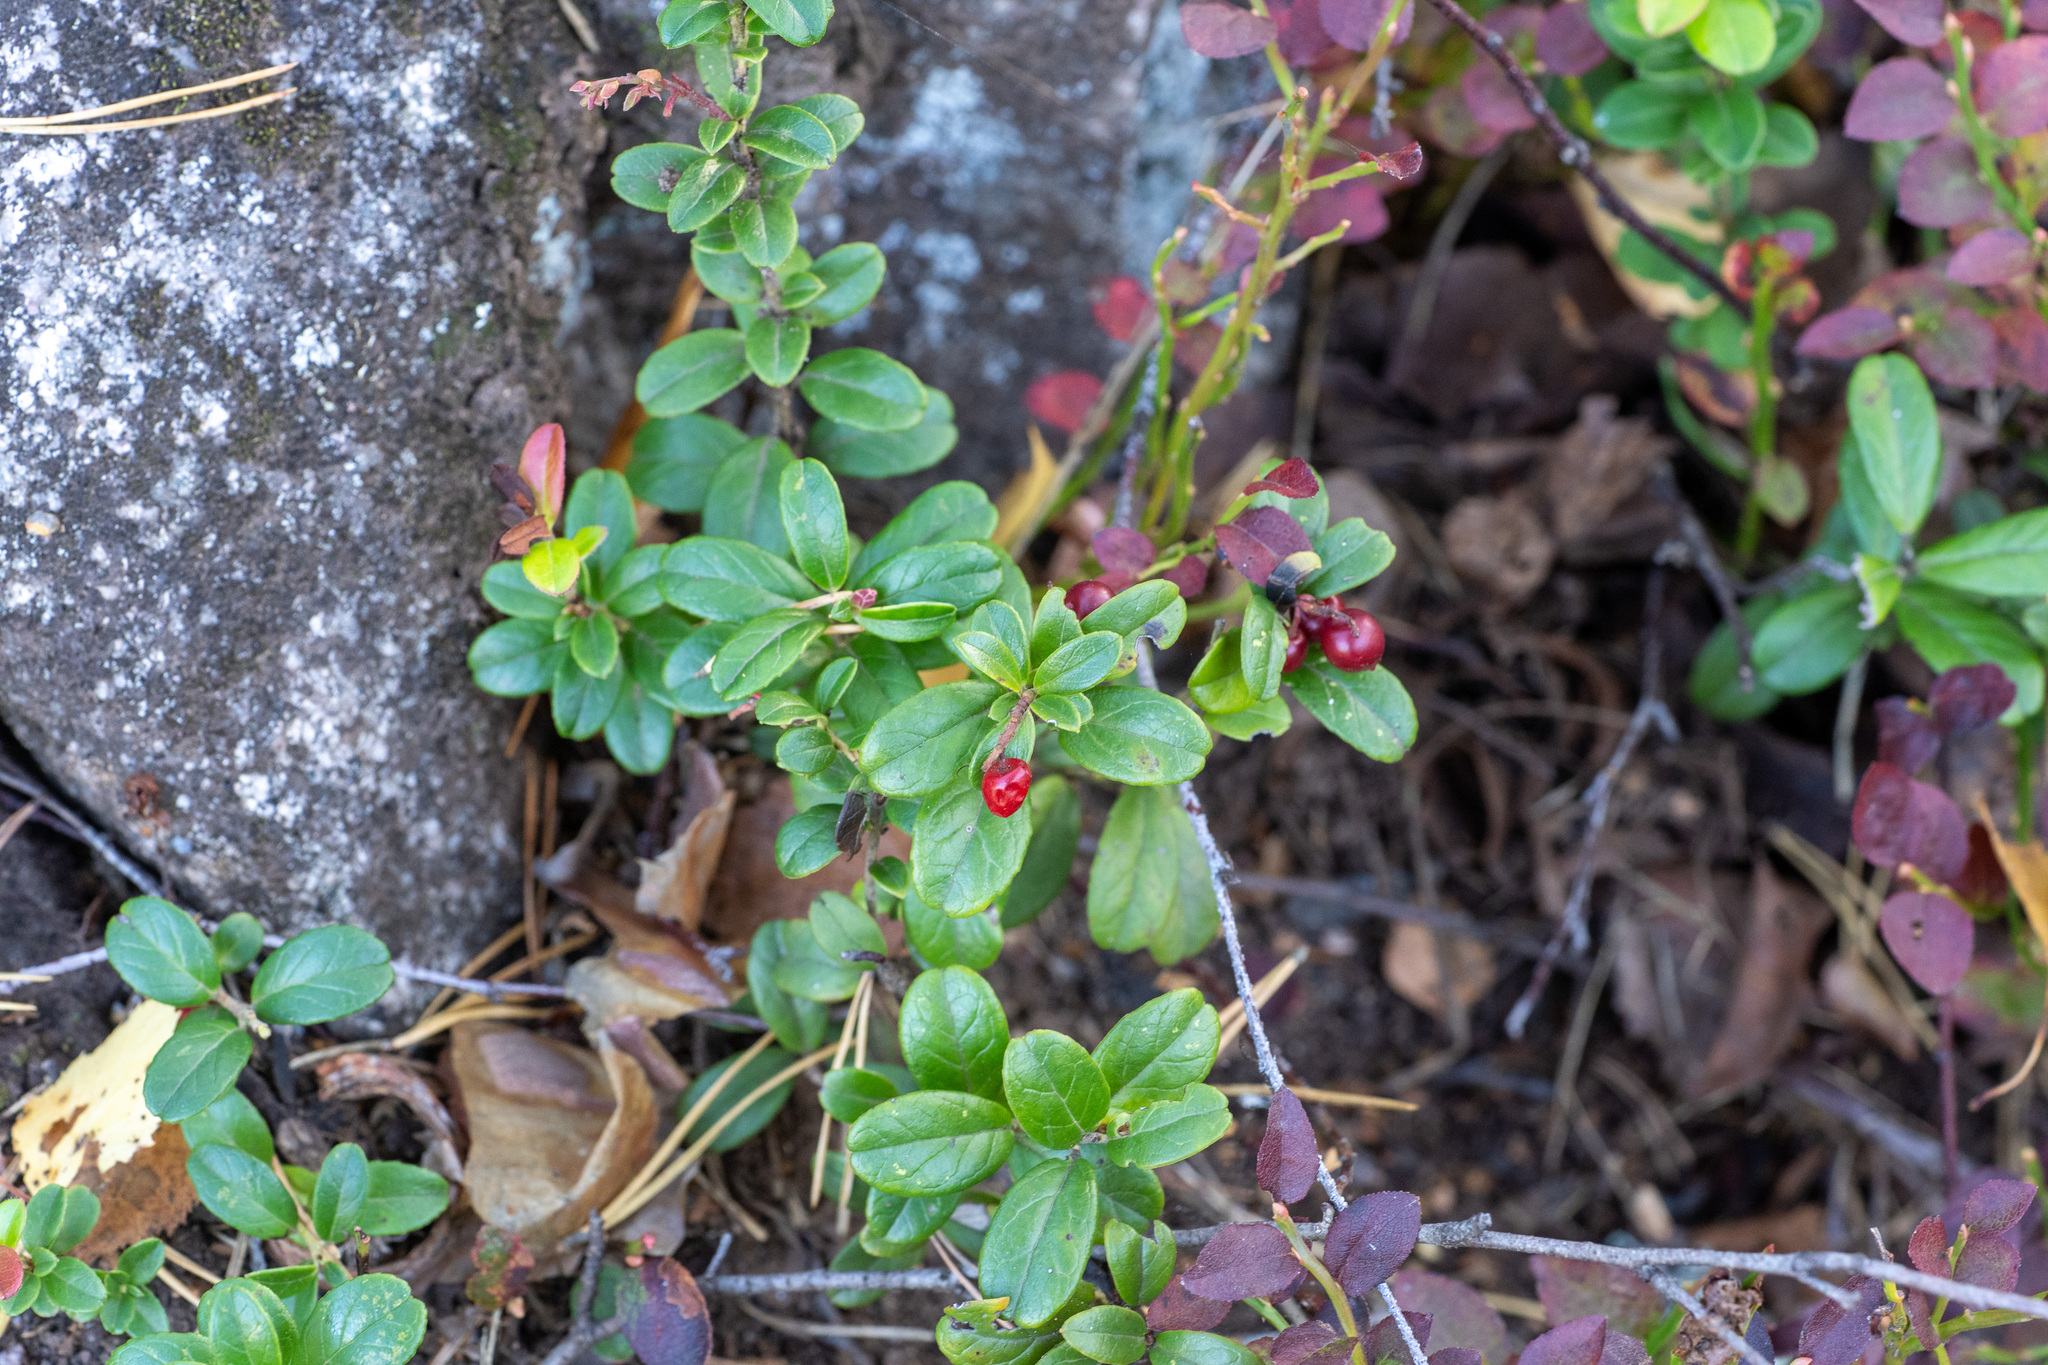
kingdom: Plantae
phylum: Tracheophyta
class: Magnoliopsida
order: Ericales
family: Ericaceae
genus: Vaccinium
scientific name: Vaccinium vitis-idaea
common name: Cowberry
